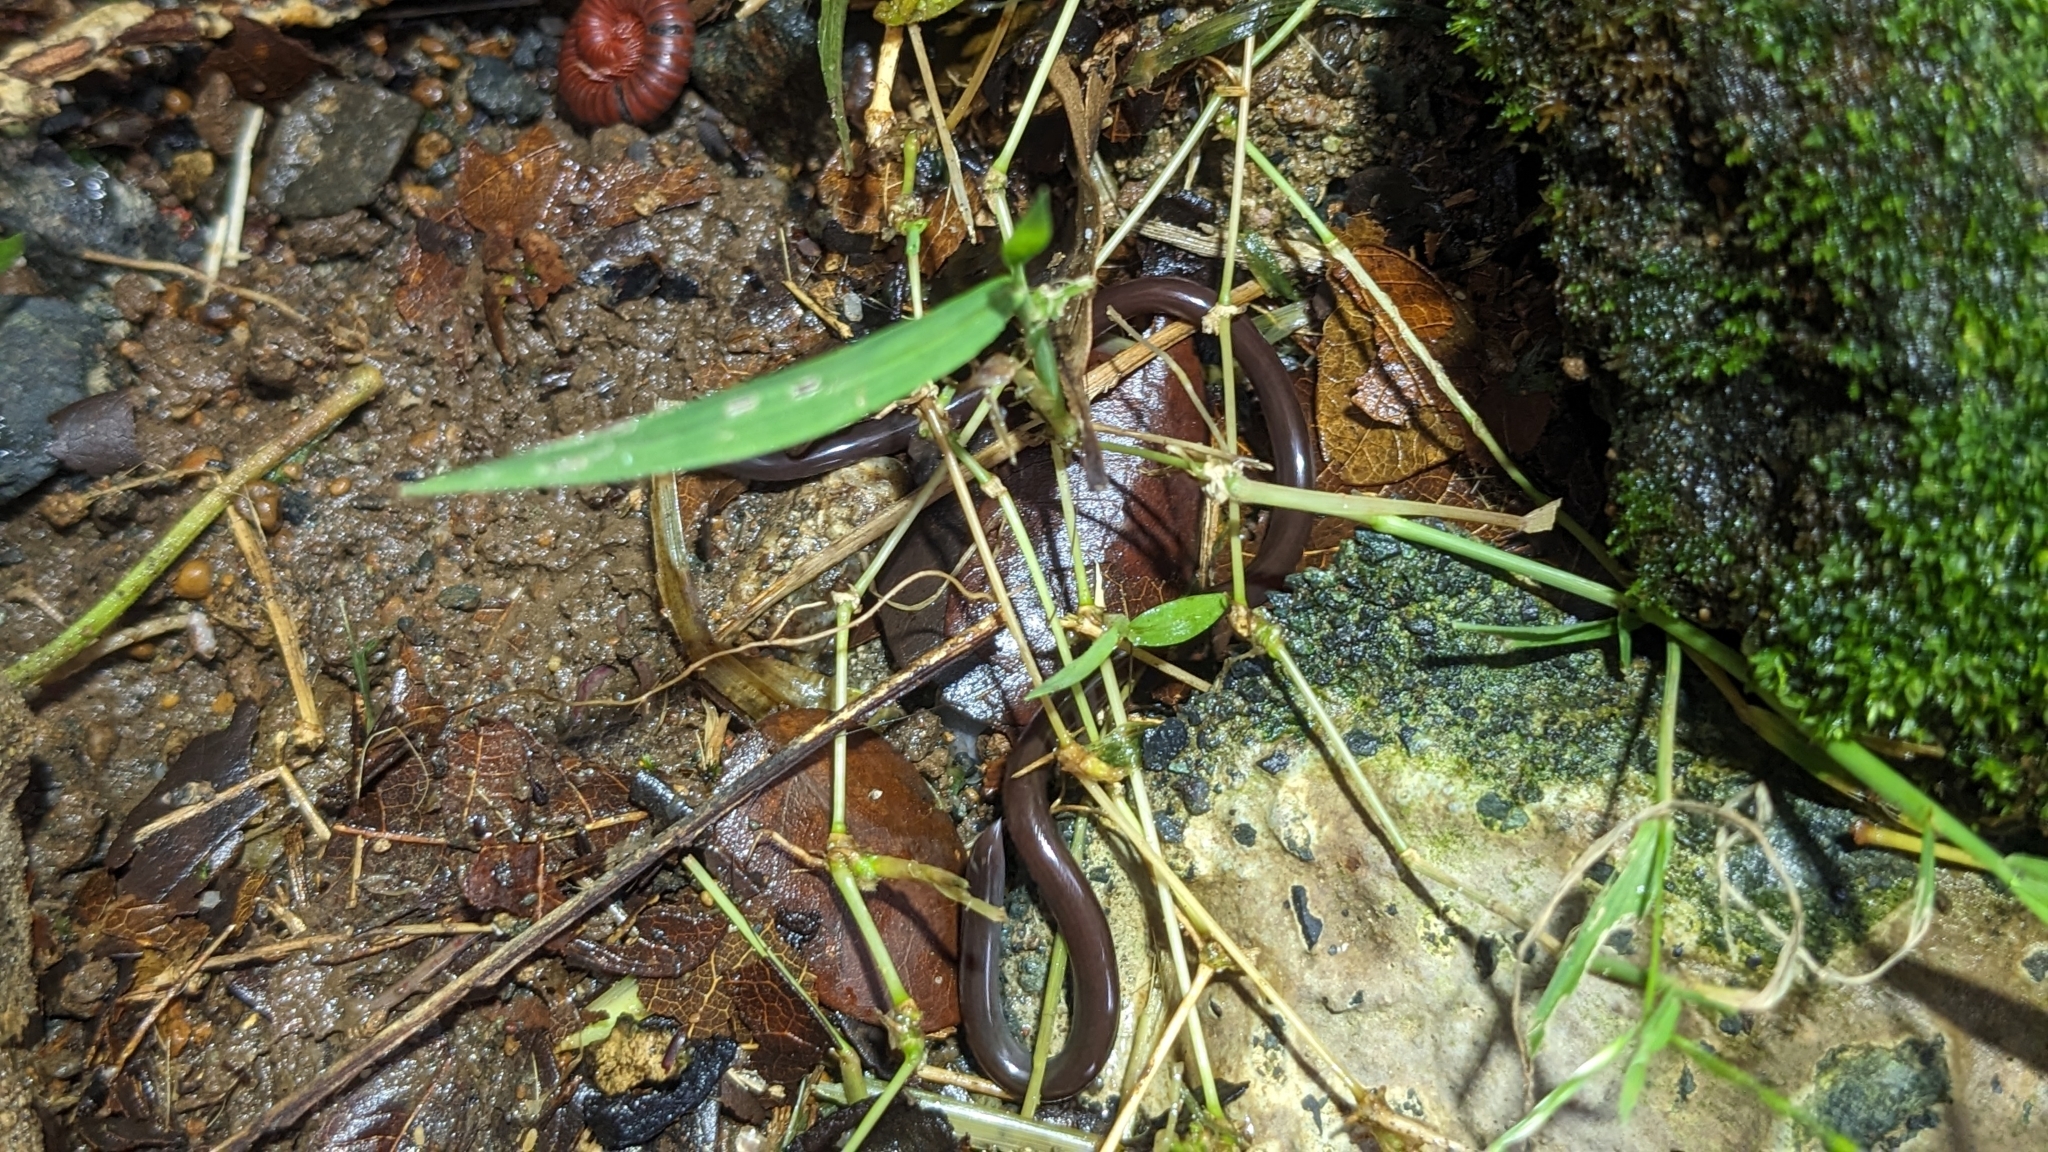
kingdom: Animalia
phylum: Chordata
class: Squamata
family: Typhlopidae
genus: Indotyphlops
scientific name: Indotyphlops braminus
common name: Brahminy blindsnake
